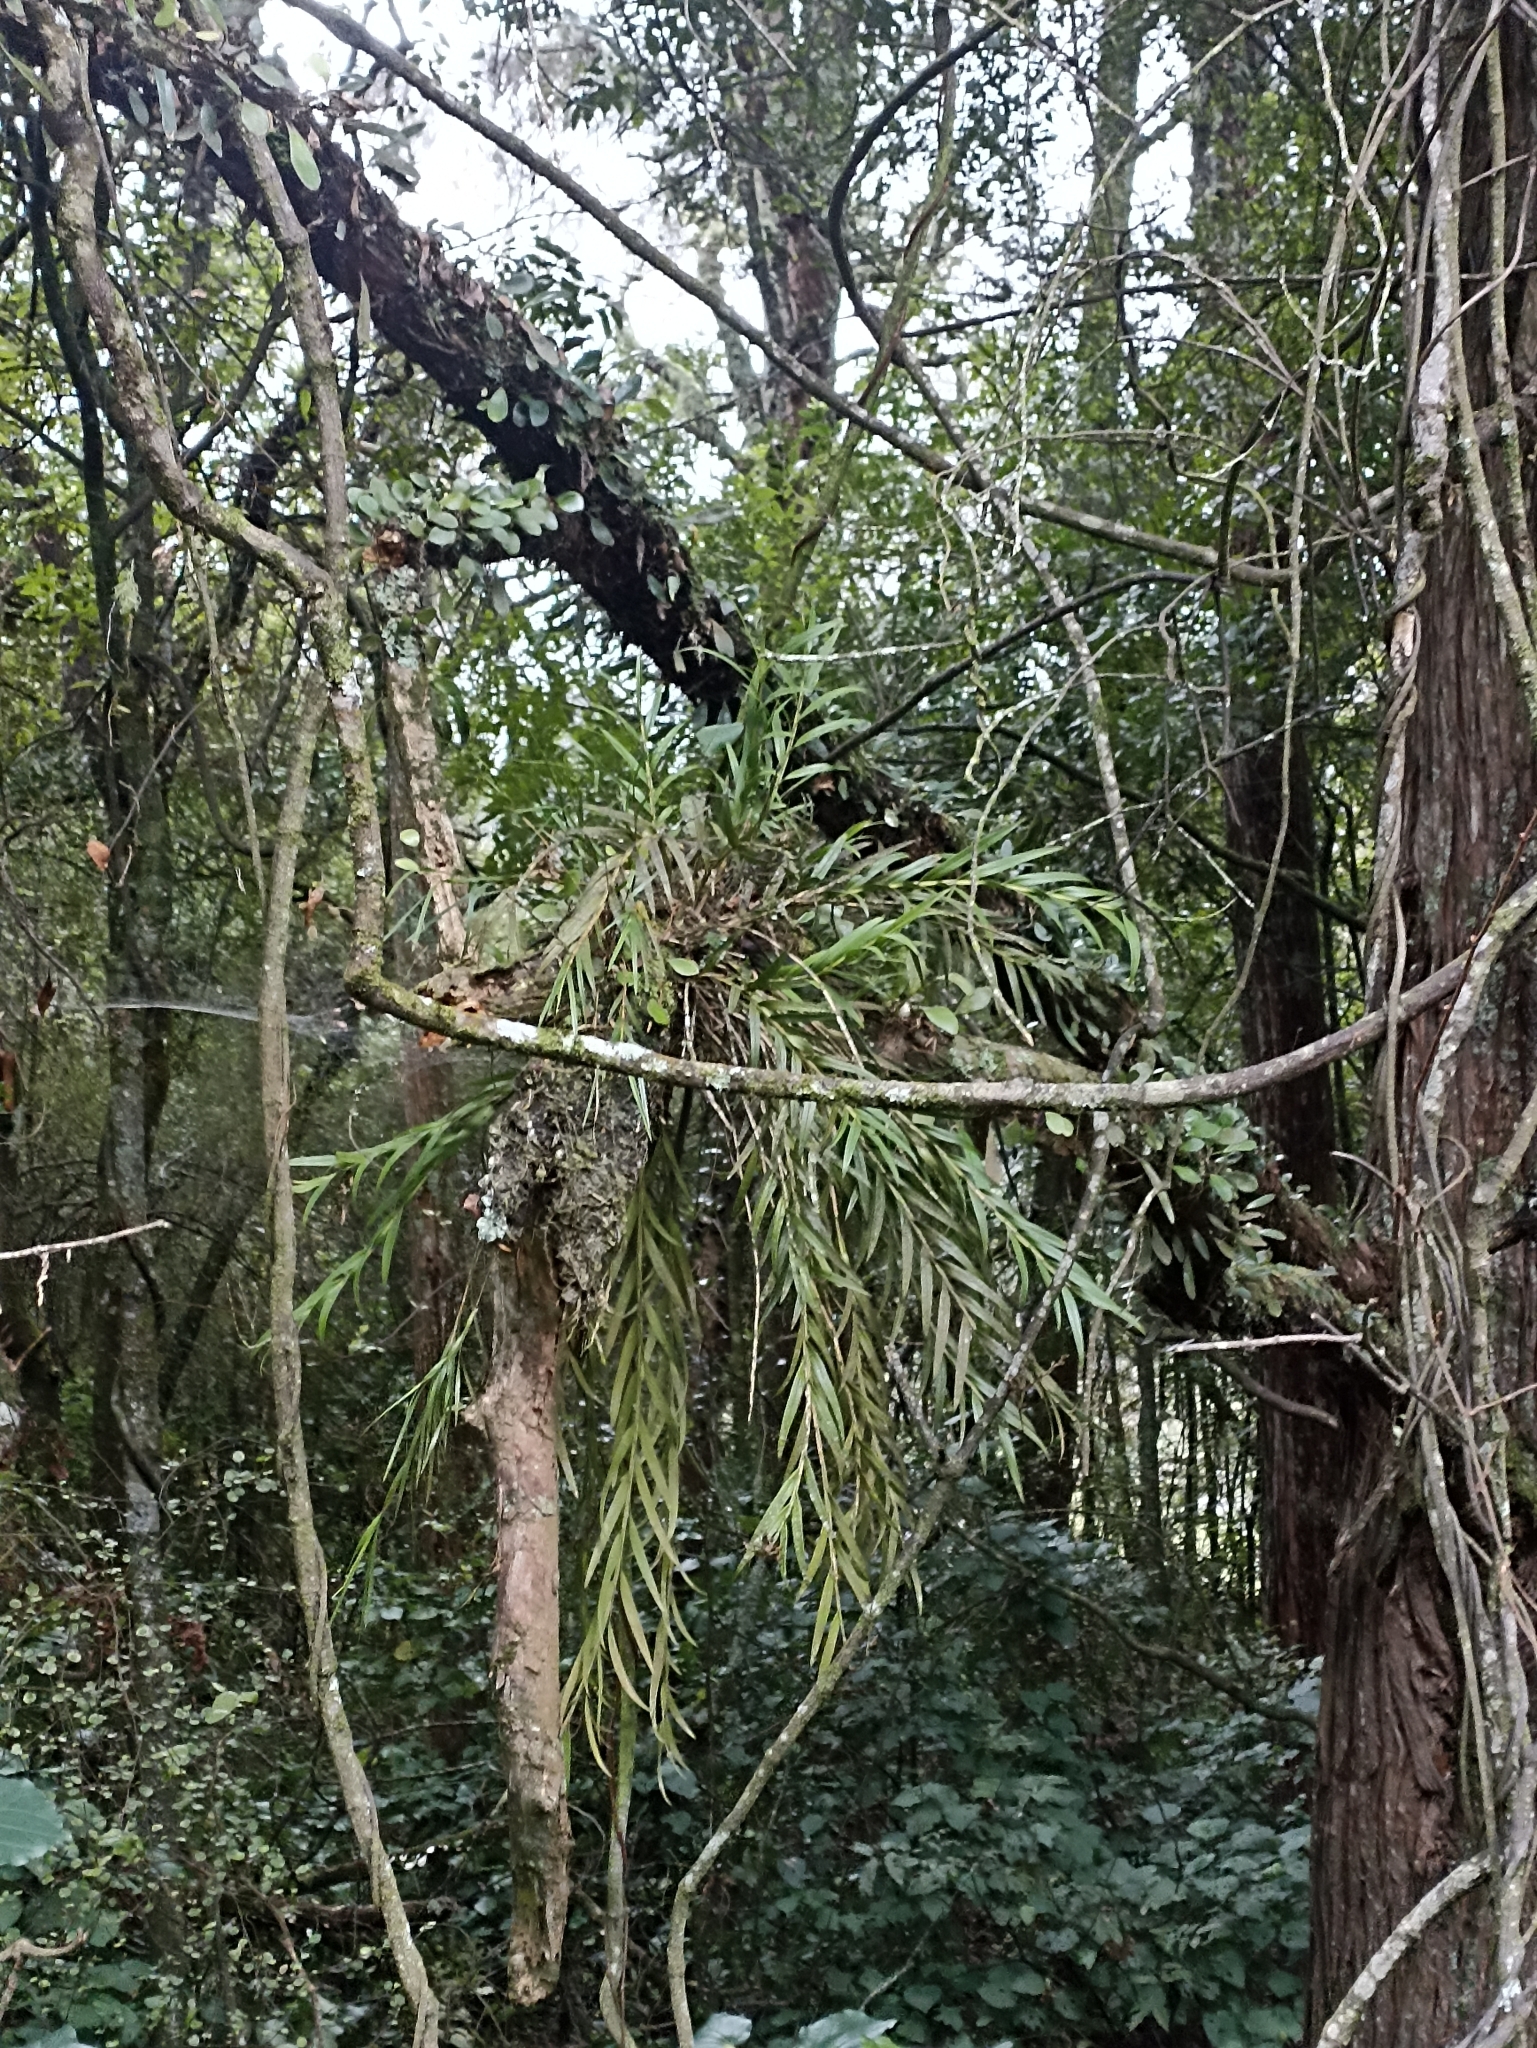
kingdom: Plantae
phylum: Tracheophyta
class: Liliopsida
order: Asparagales
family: Orchidaceae
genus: Earina
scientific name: Earina autumnalis
